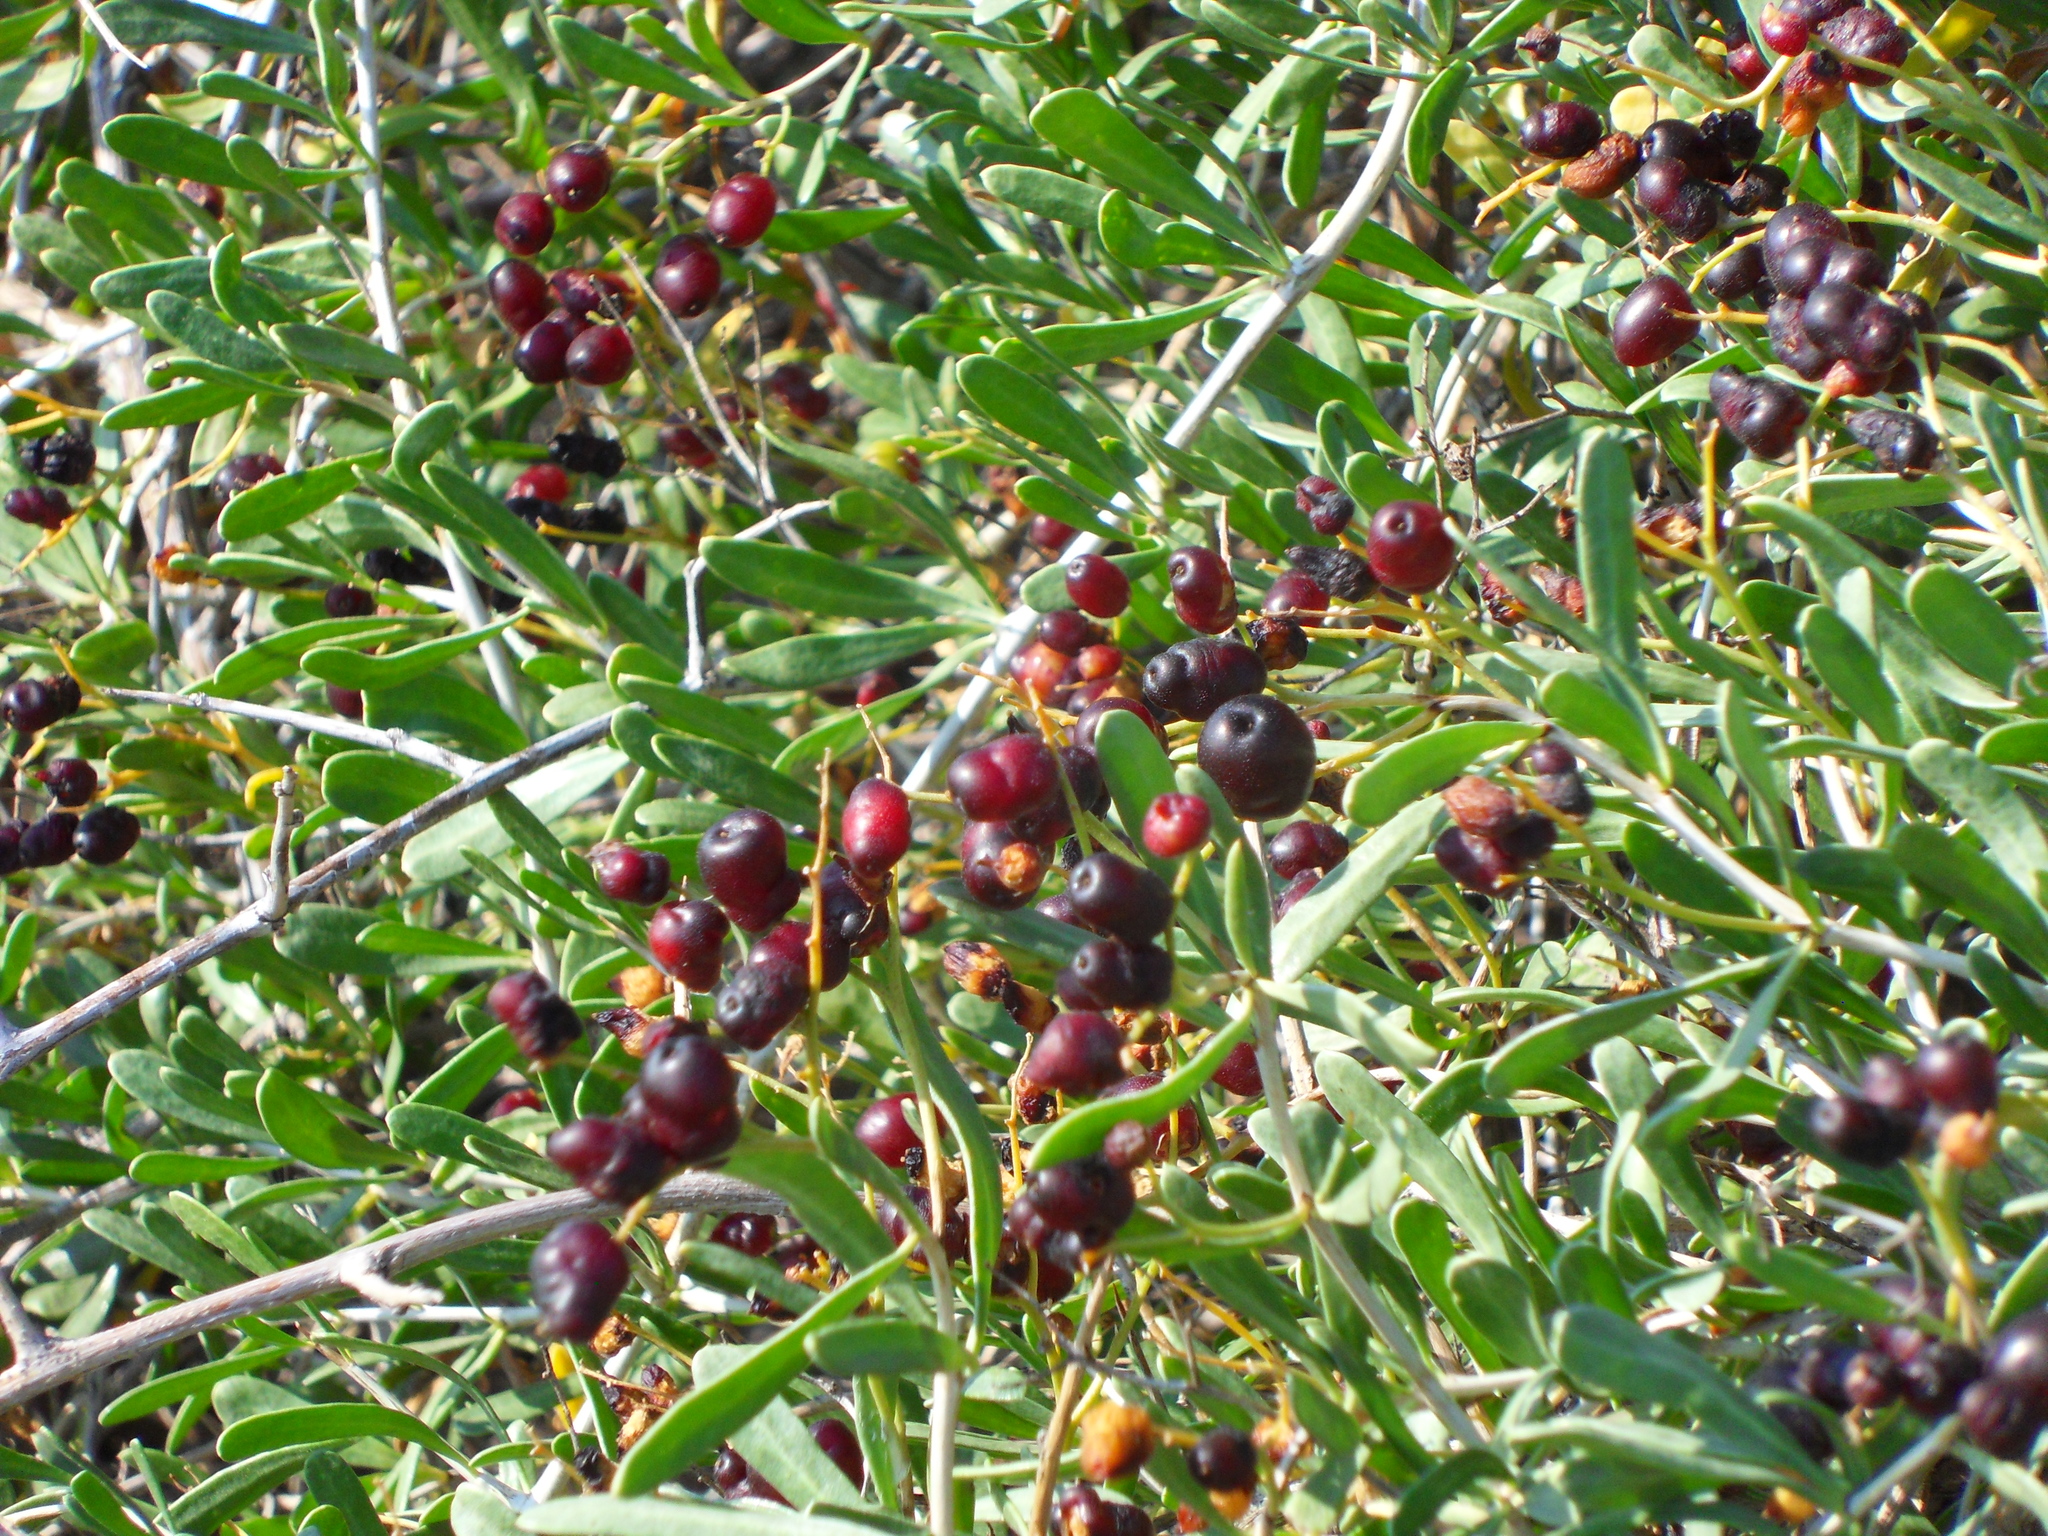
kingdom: Plantae
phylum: Tracheophyta
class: Magnoliopsida
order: Sapindales
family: Nitrariaceae
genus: Nitraria
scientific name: Nitraria schoberi
